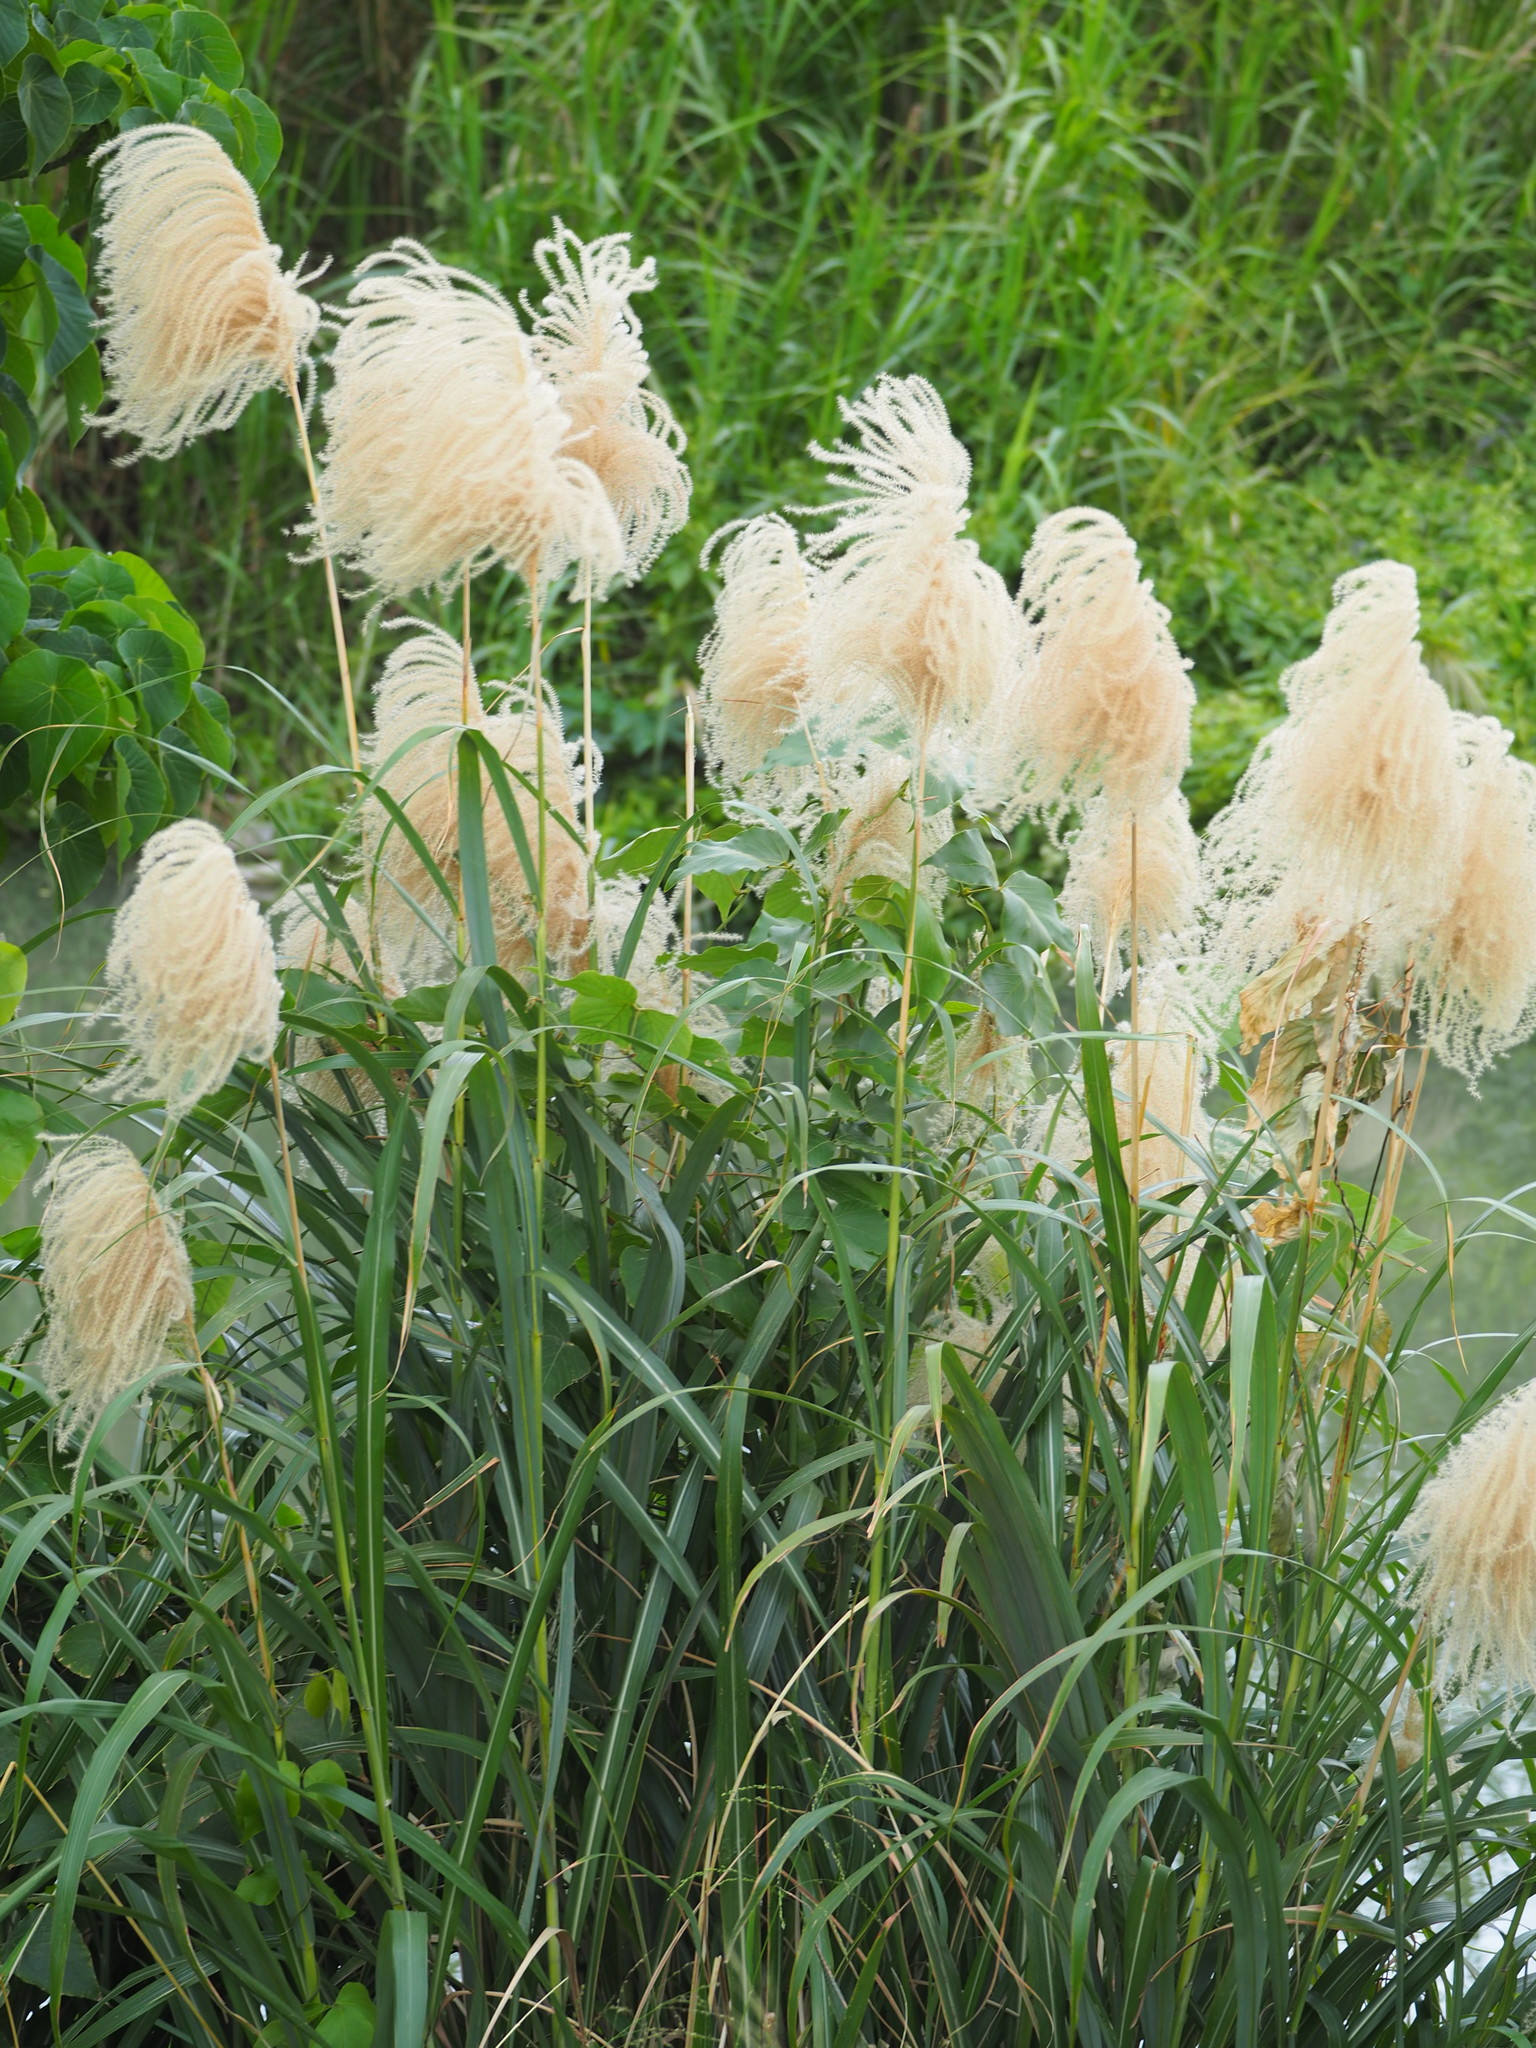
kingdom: Plantae
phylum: Tracheophyta
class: Liliopsida
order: Poales
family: Poaceae
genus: Miscanthus
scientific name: Miscanthus sinensis
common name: Chinese silvergrass
